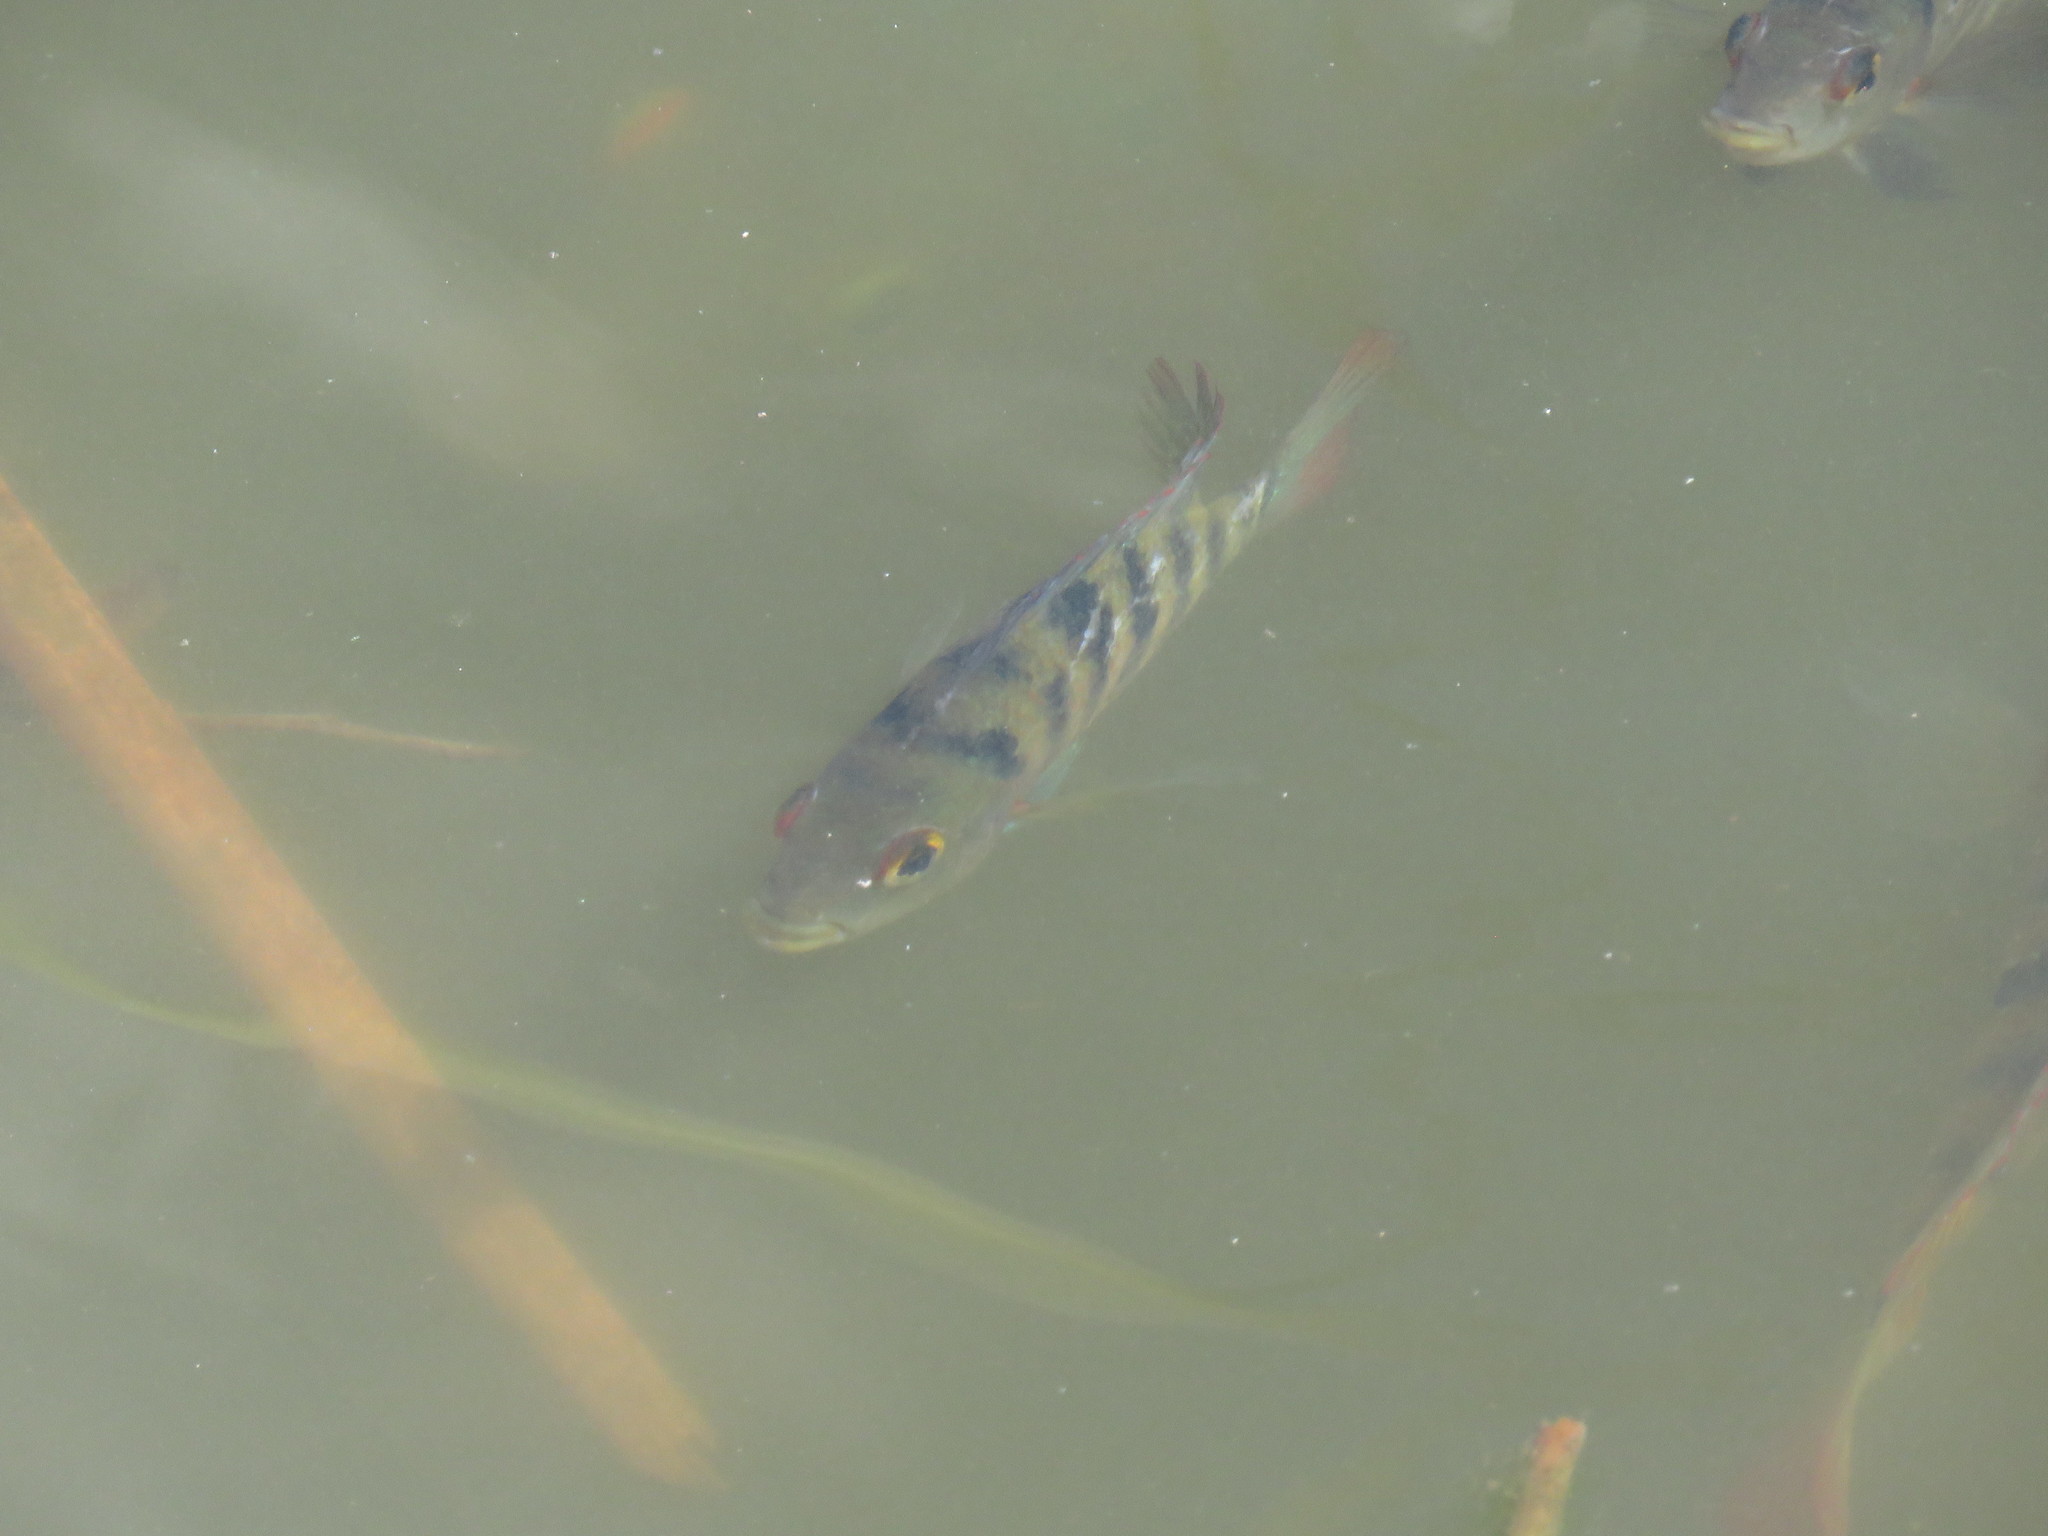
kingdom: Animalia
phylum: Chordata
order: Perciformes
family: Cichlidae
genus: Mayaheros
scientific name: Mayaheros urophthalmus
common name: Mayan cichlid
